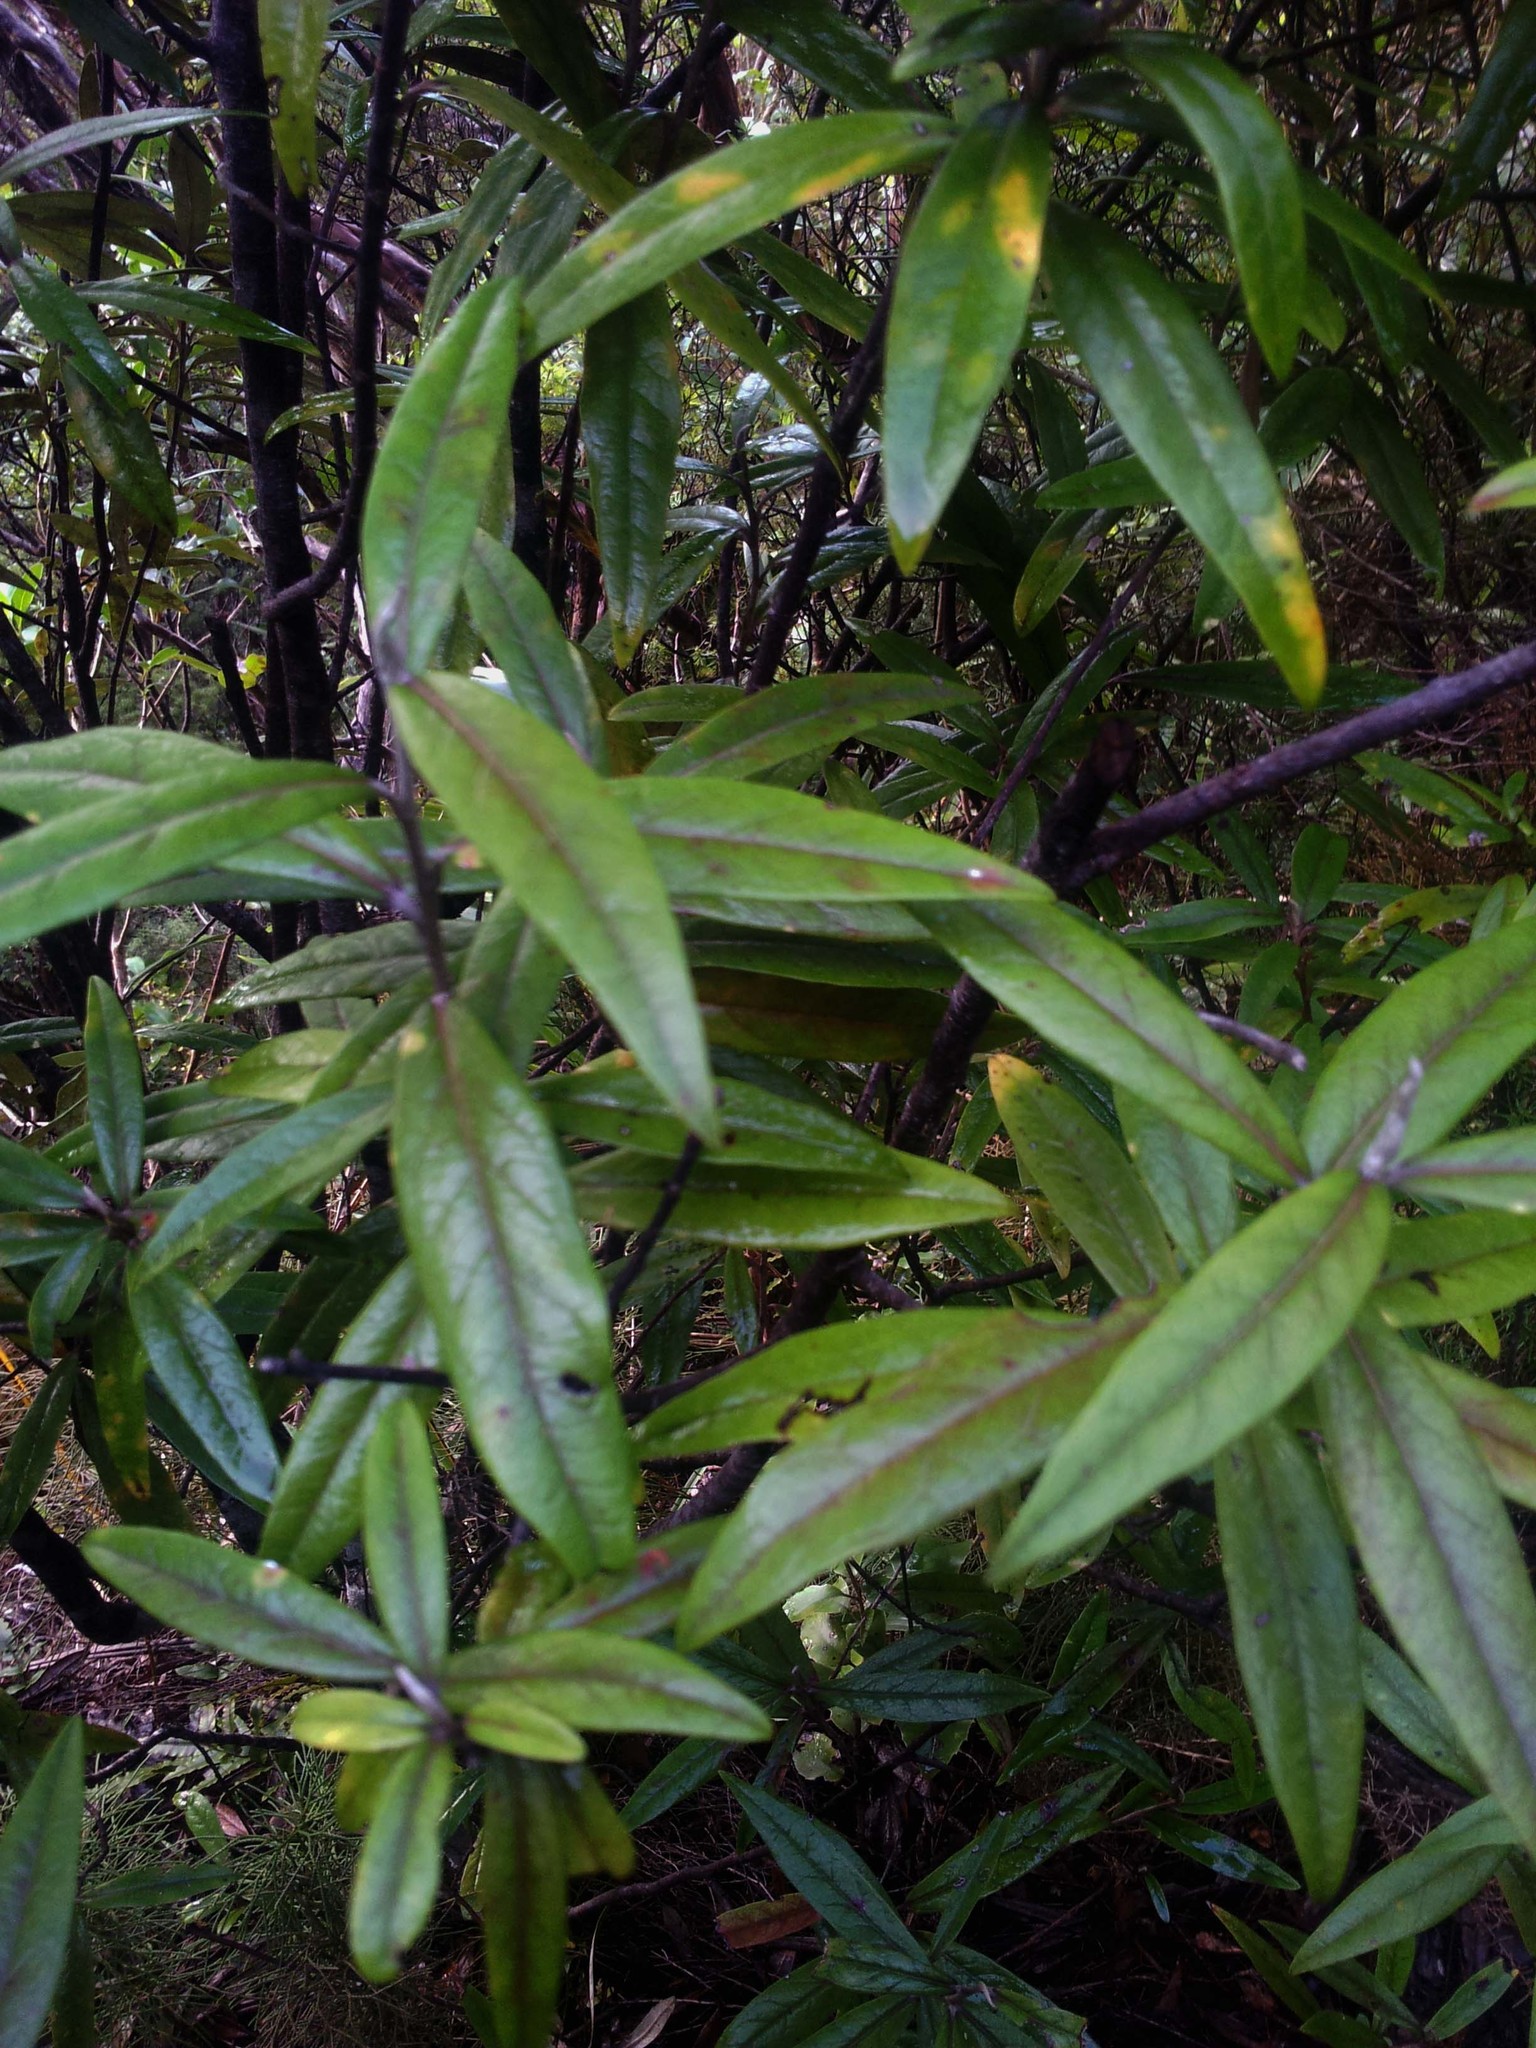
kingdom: Plantae
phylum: Tracheophyta
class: Magnoliopsida
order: Asterales
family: Argophyllaceae
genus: Corokia
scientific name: Corokia buddleioides
